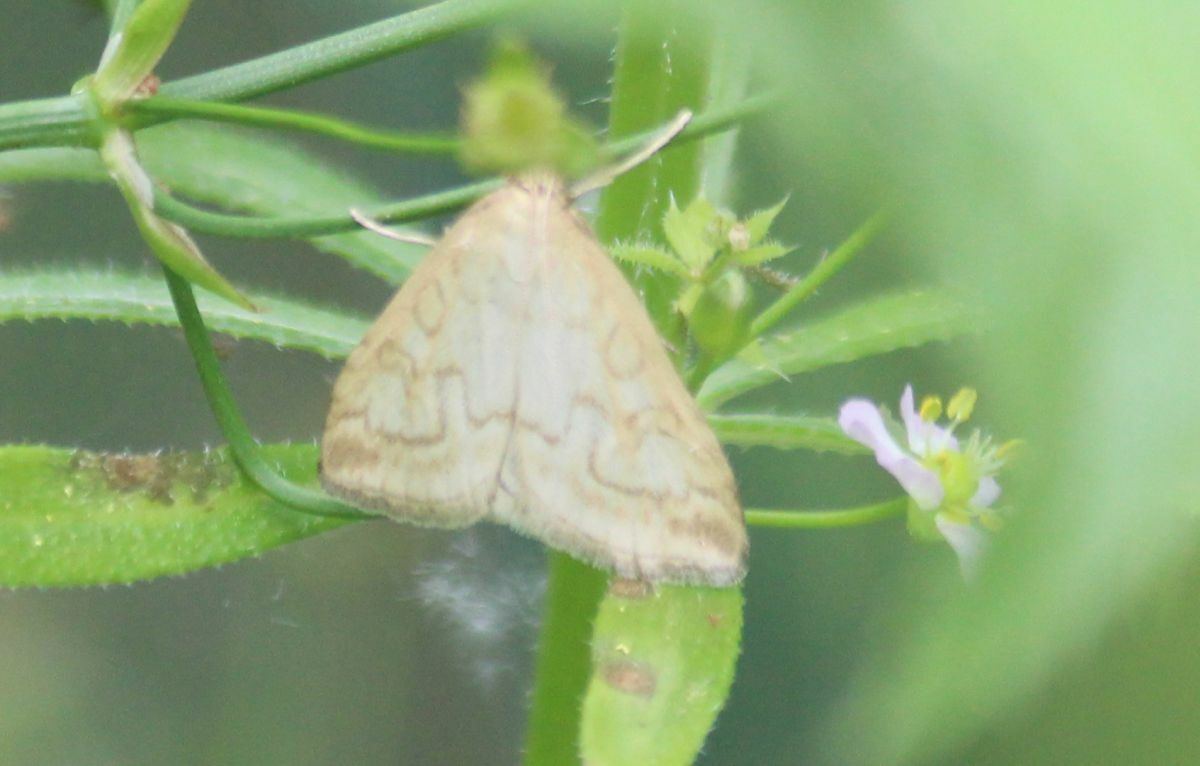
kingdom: Animalia
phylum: Arthropoda
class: Insecta
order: Lepidoptera
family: Crambidae
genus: Udea
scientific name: Udea lutealis
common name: Pale straw pearl
